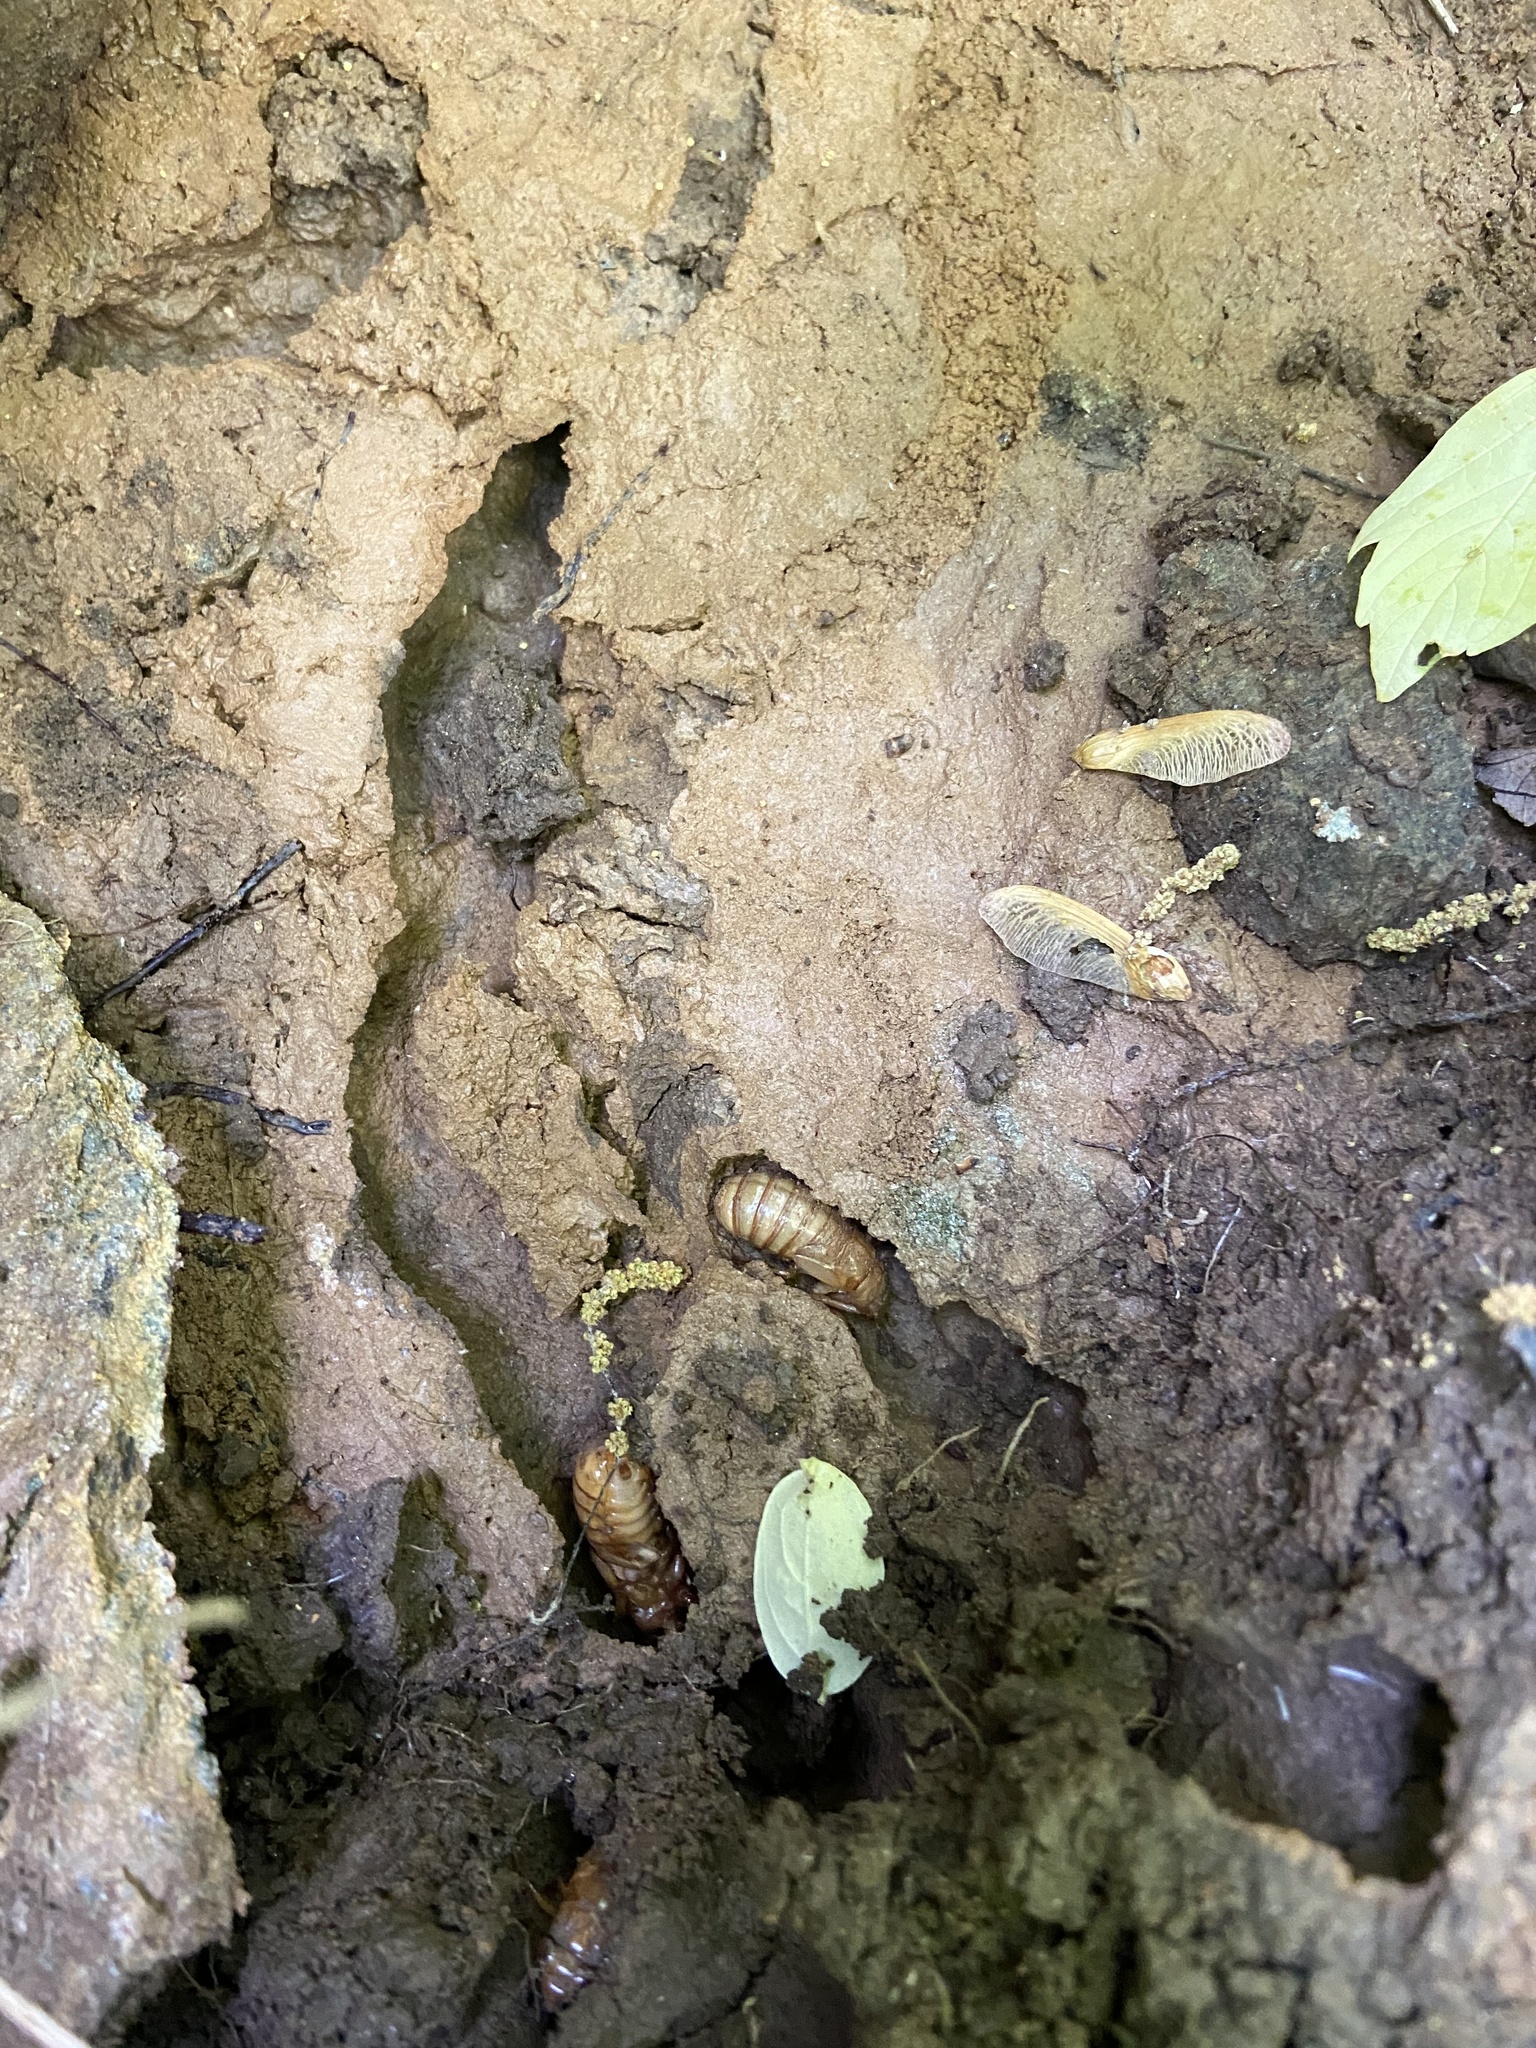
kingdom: Animalia
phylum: Arthropoda
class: Insecta
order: Hemiptera
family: Cicadidae
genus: Magicicada
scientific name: Magicicada
